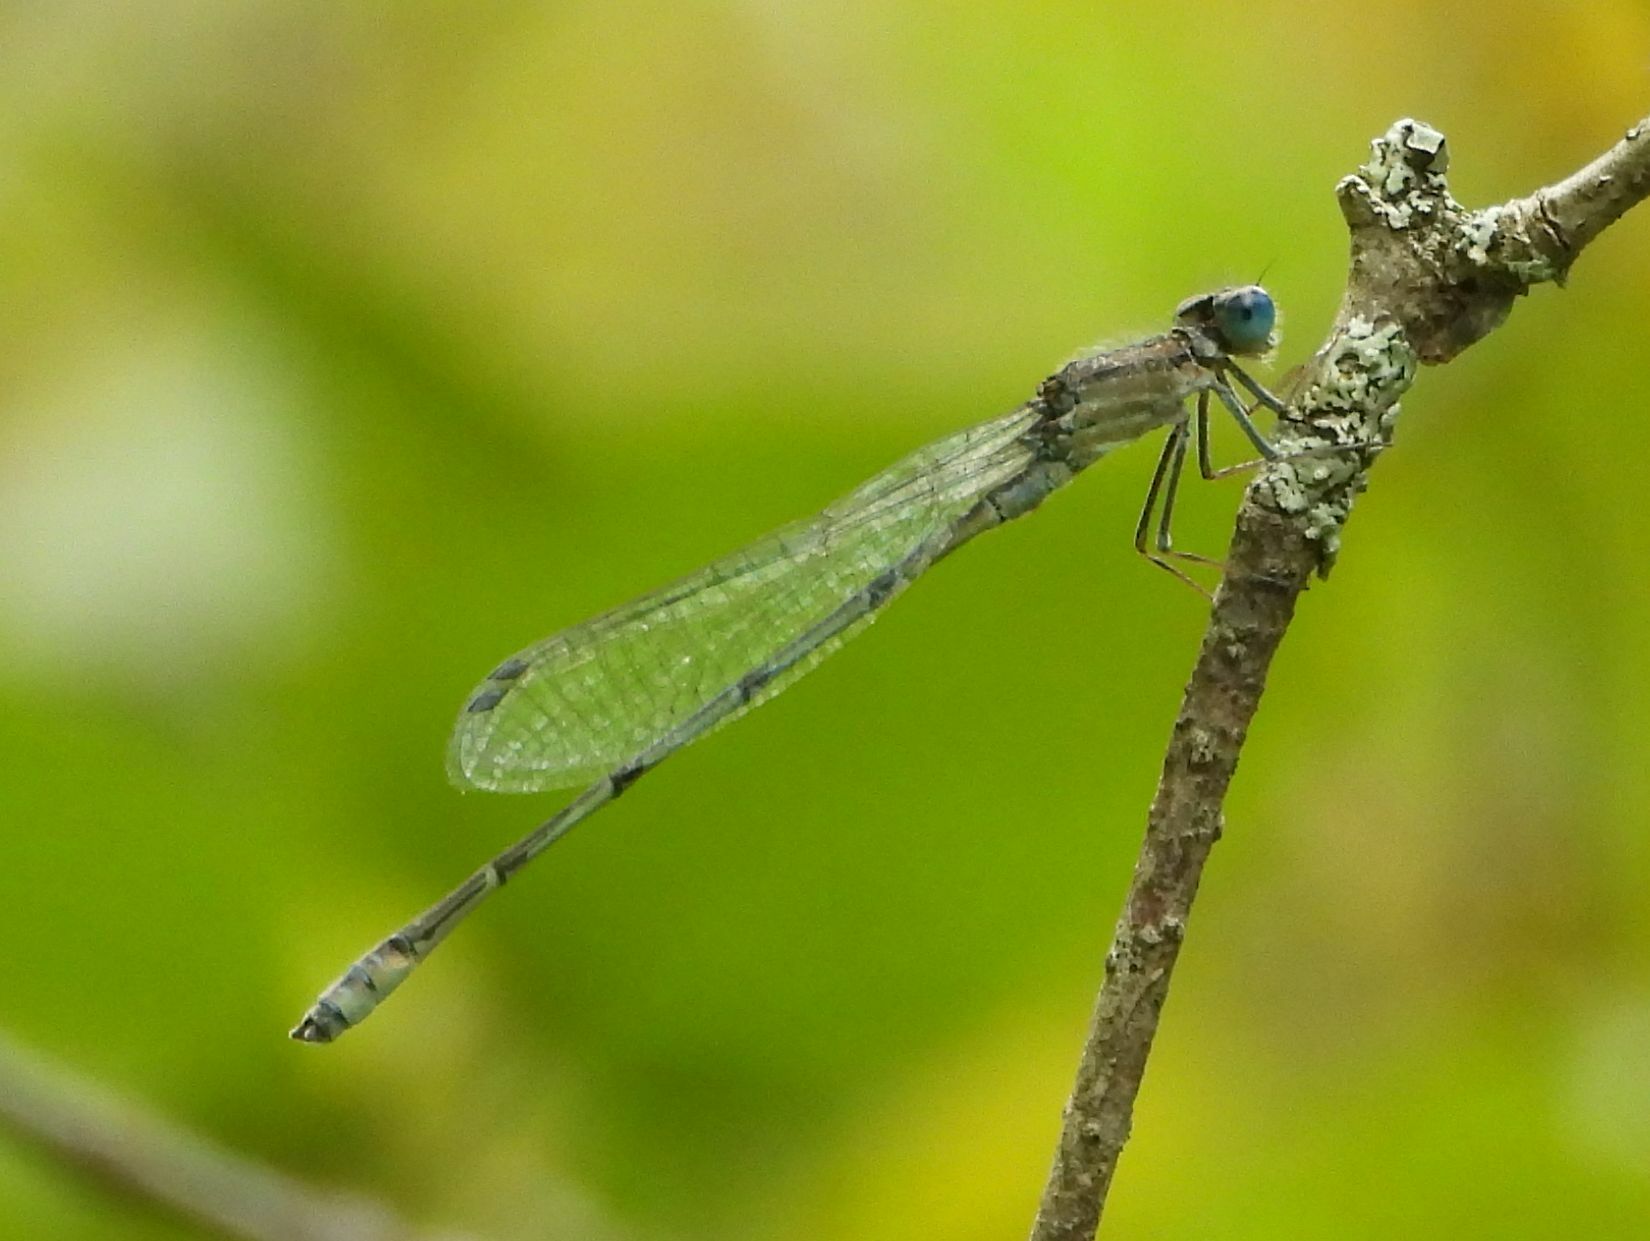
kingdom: Animalia
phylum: Arthropoda
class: Insecta
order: Odonata
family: Coenagrionidae
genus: Enallagma
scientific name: Enallagma civile
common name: Damselfly
